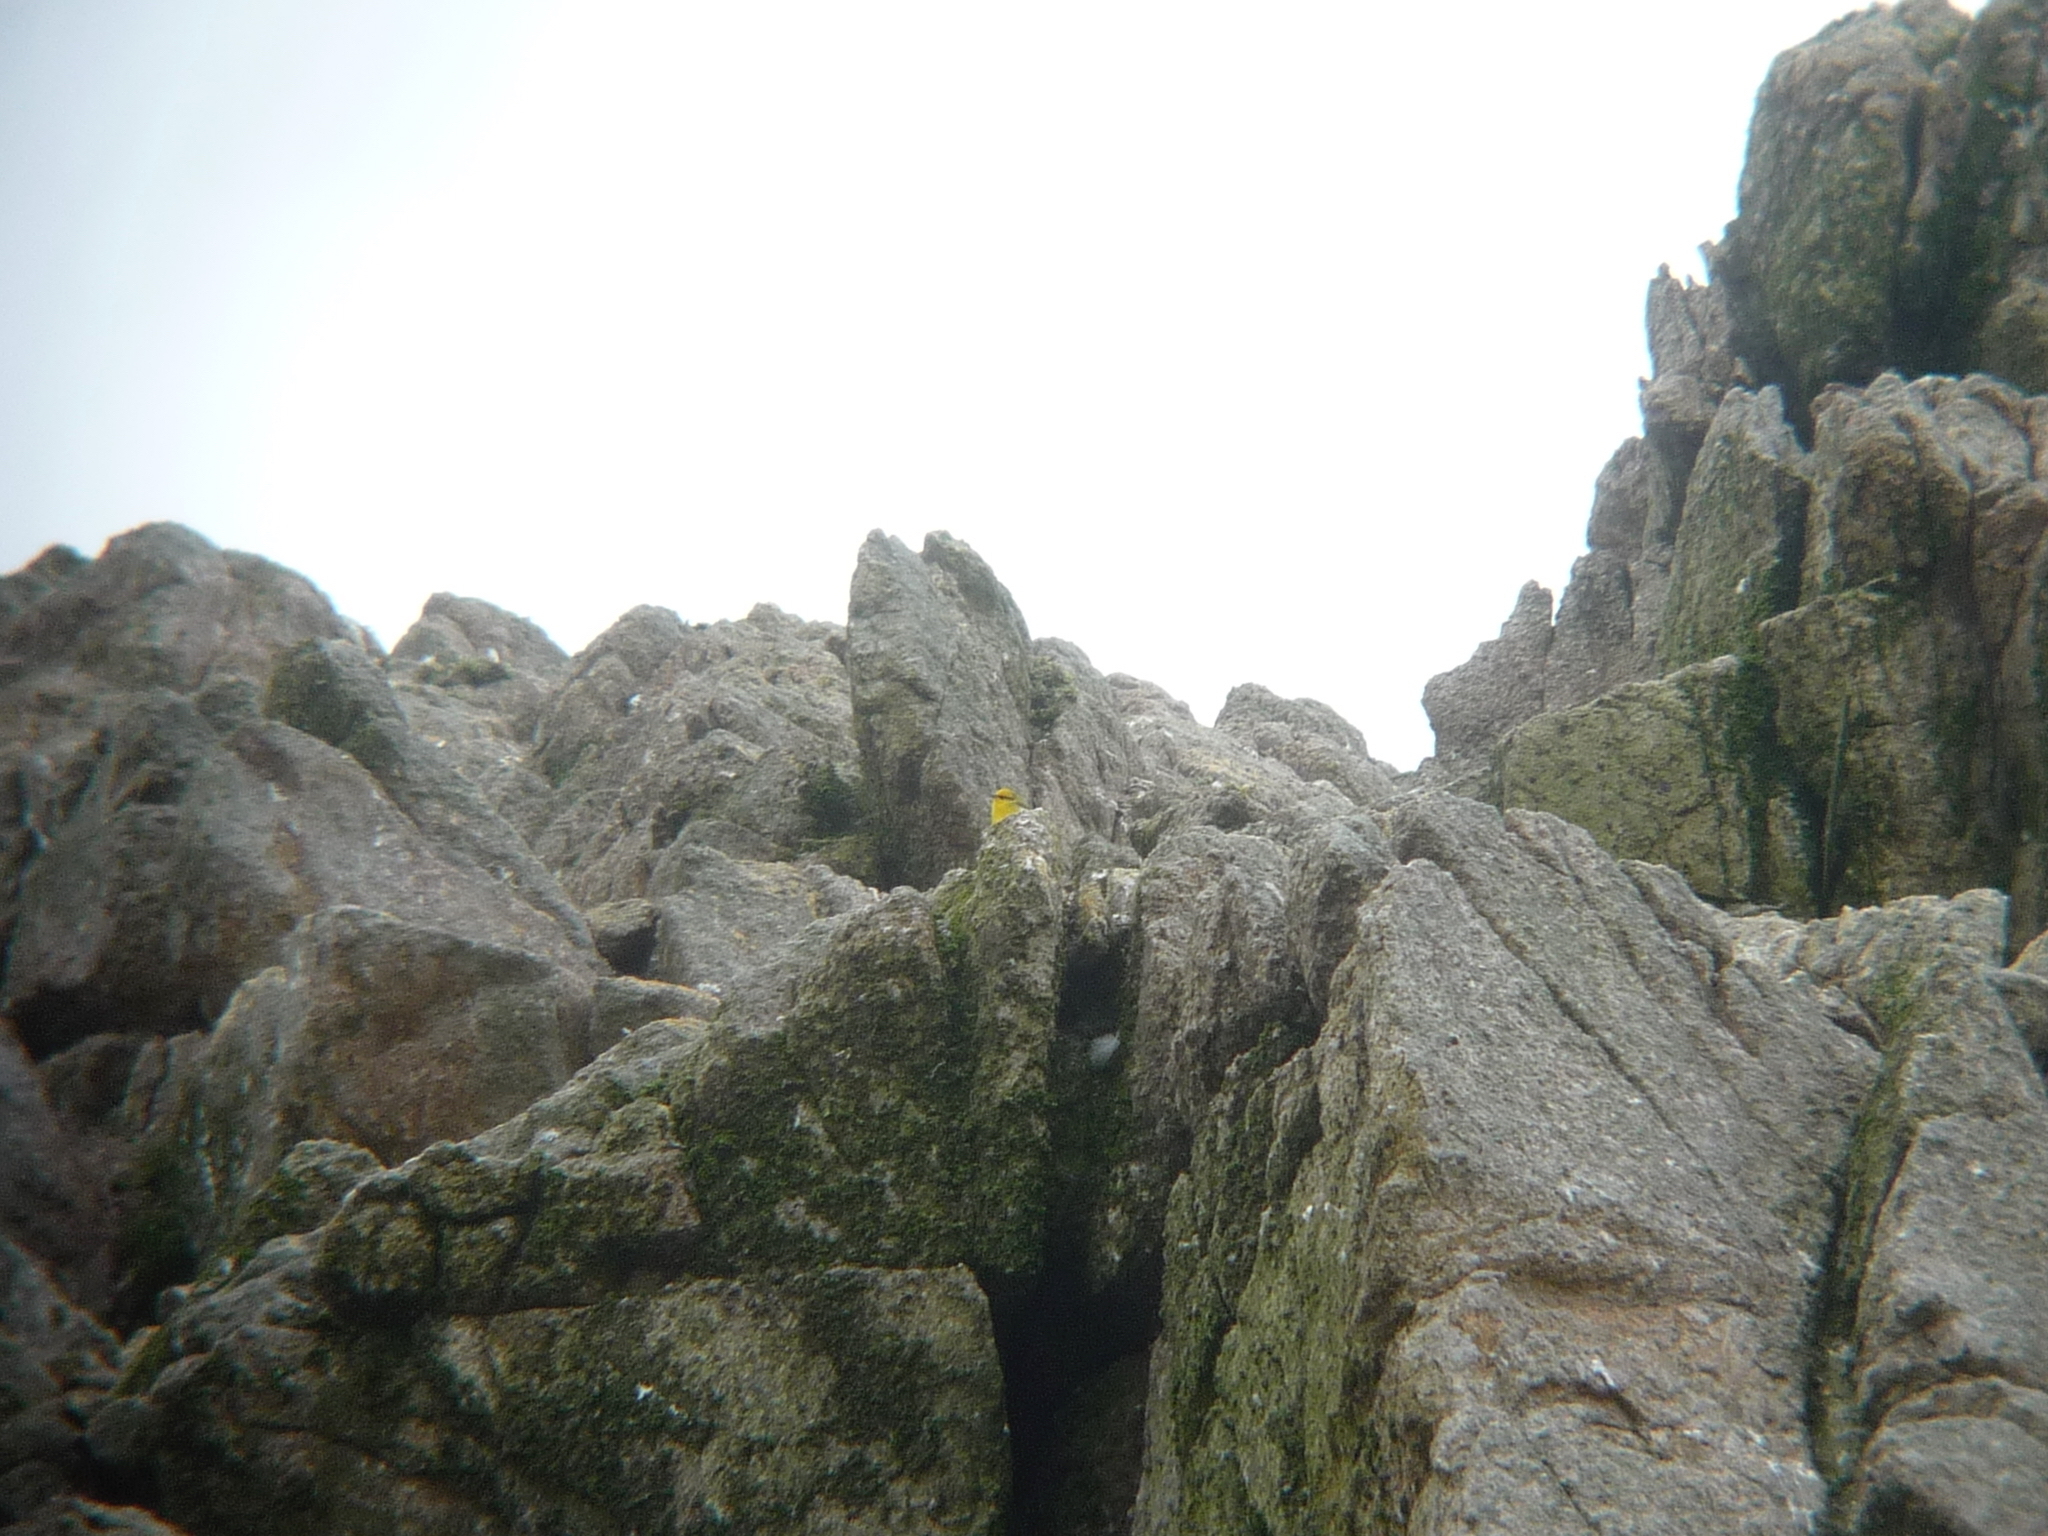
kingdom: Animalia
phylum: Chordata
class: Aves
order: Passeriformes
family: Parulidae
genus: Vermivora
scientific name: Vermivora
